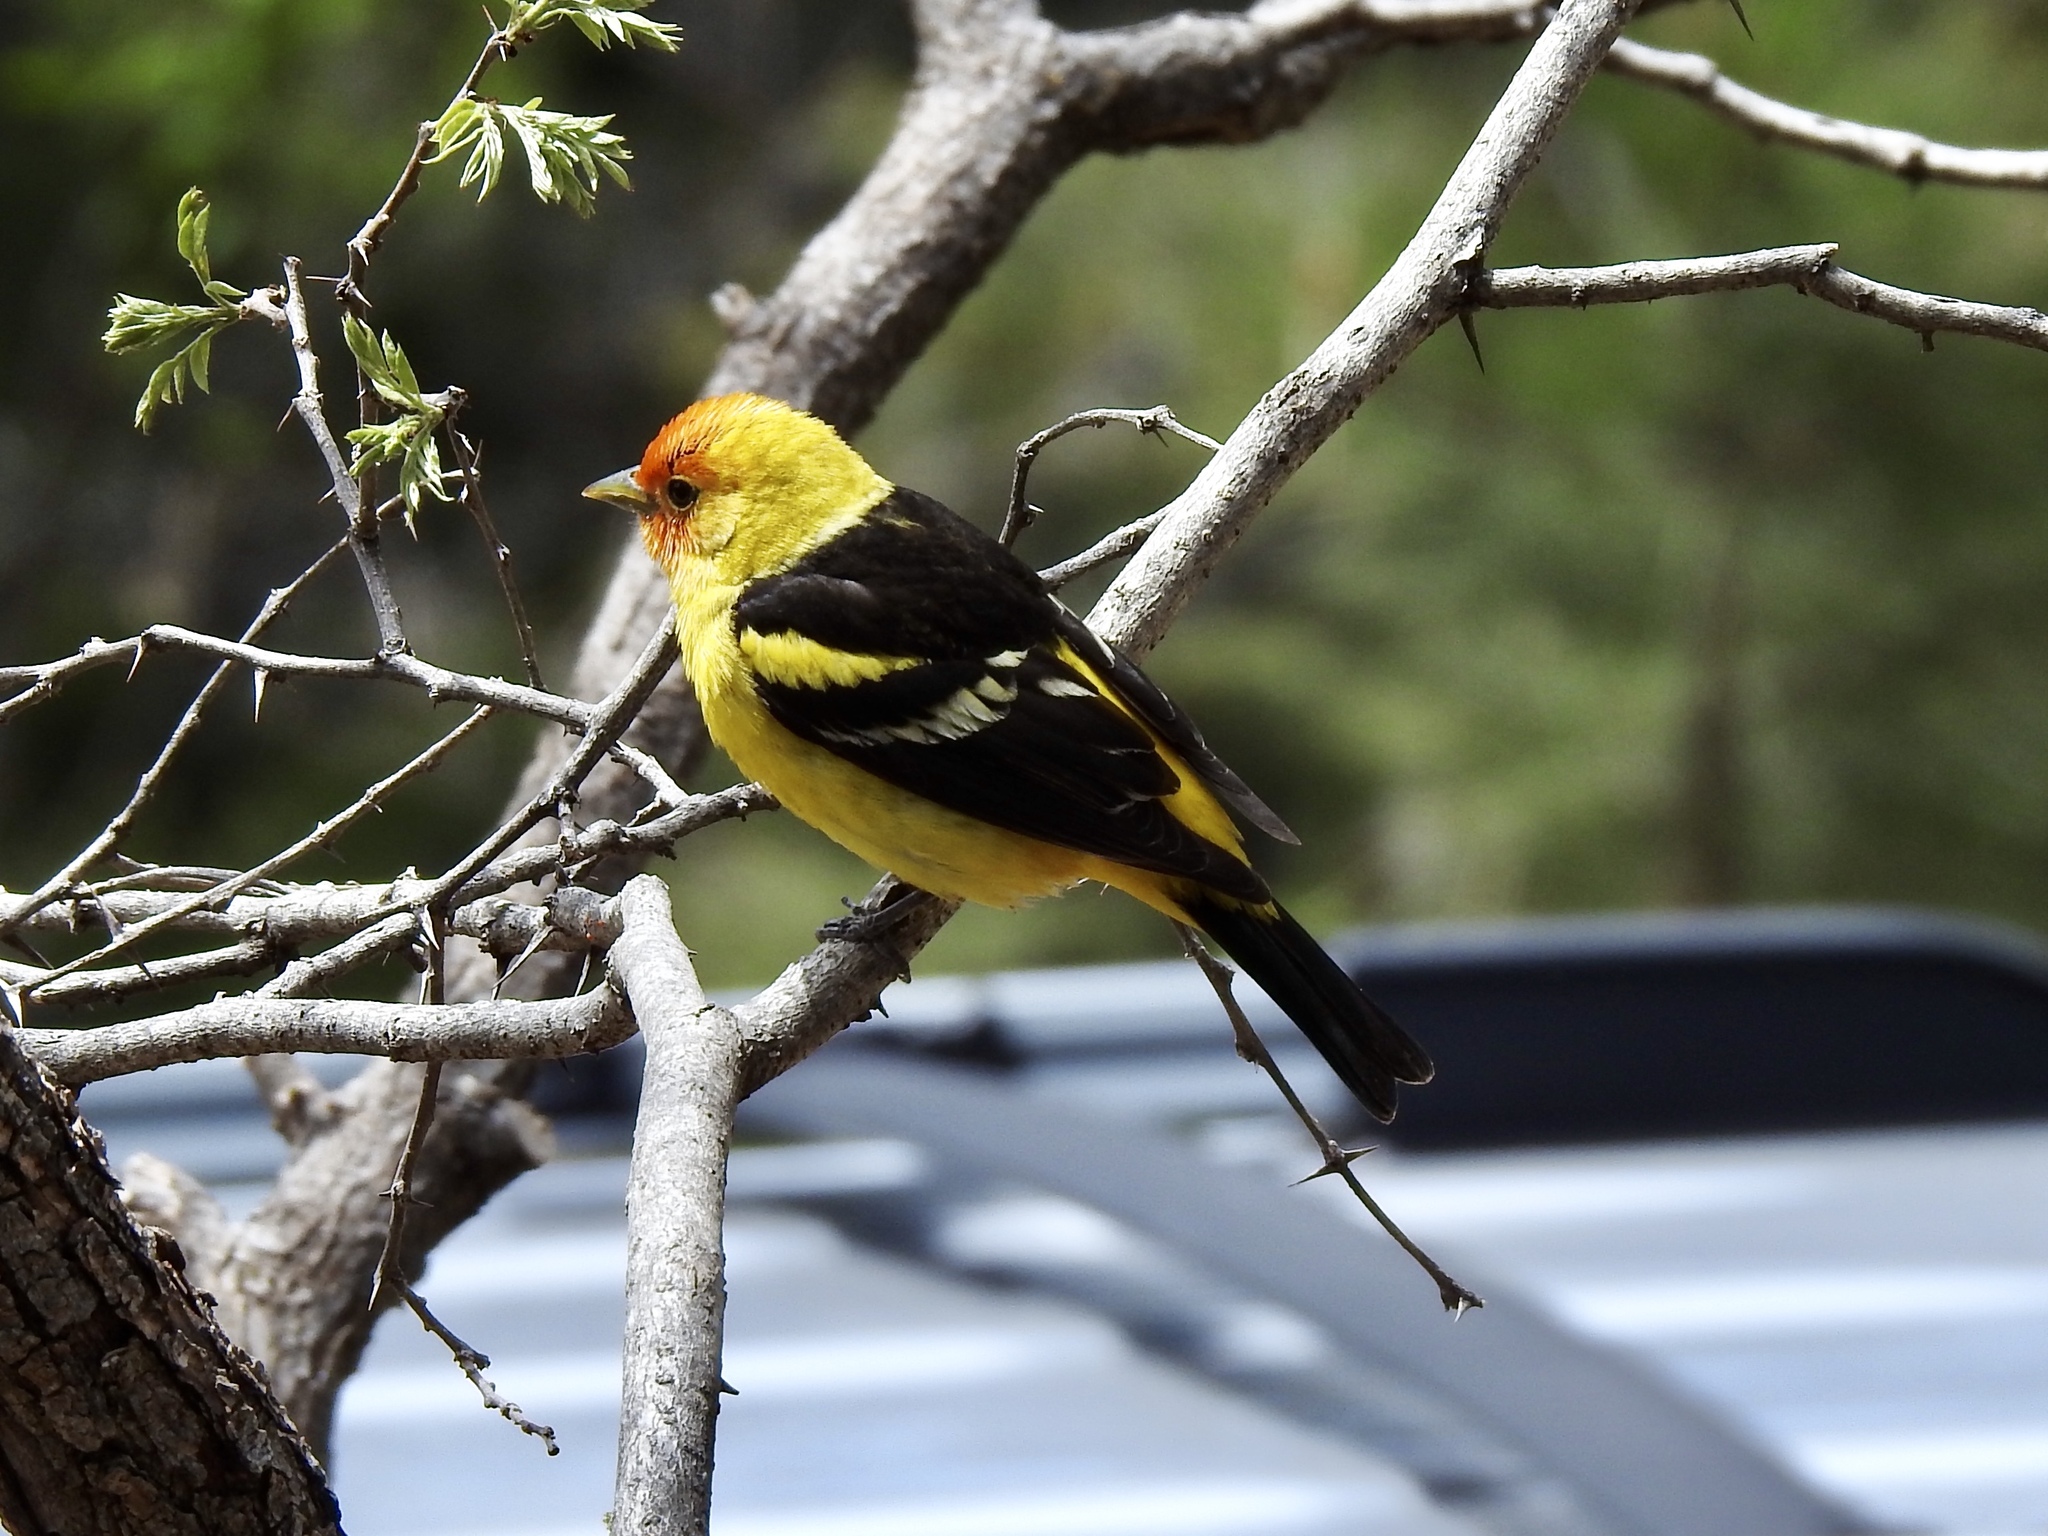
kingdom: Animalia
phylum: Chordata
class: Aves
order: Passeriformes
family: Cardinalidae
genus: Piranga
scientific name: Piranga ludoviciana
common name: Western tanager
